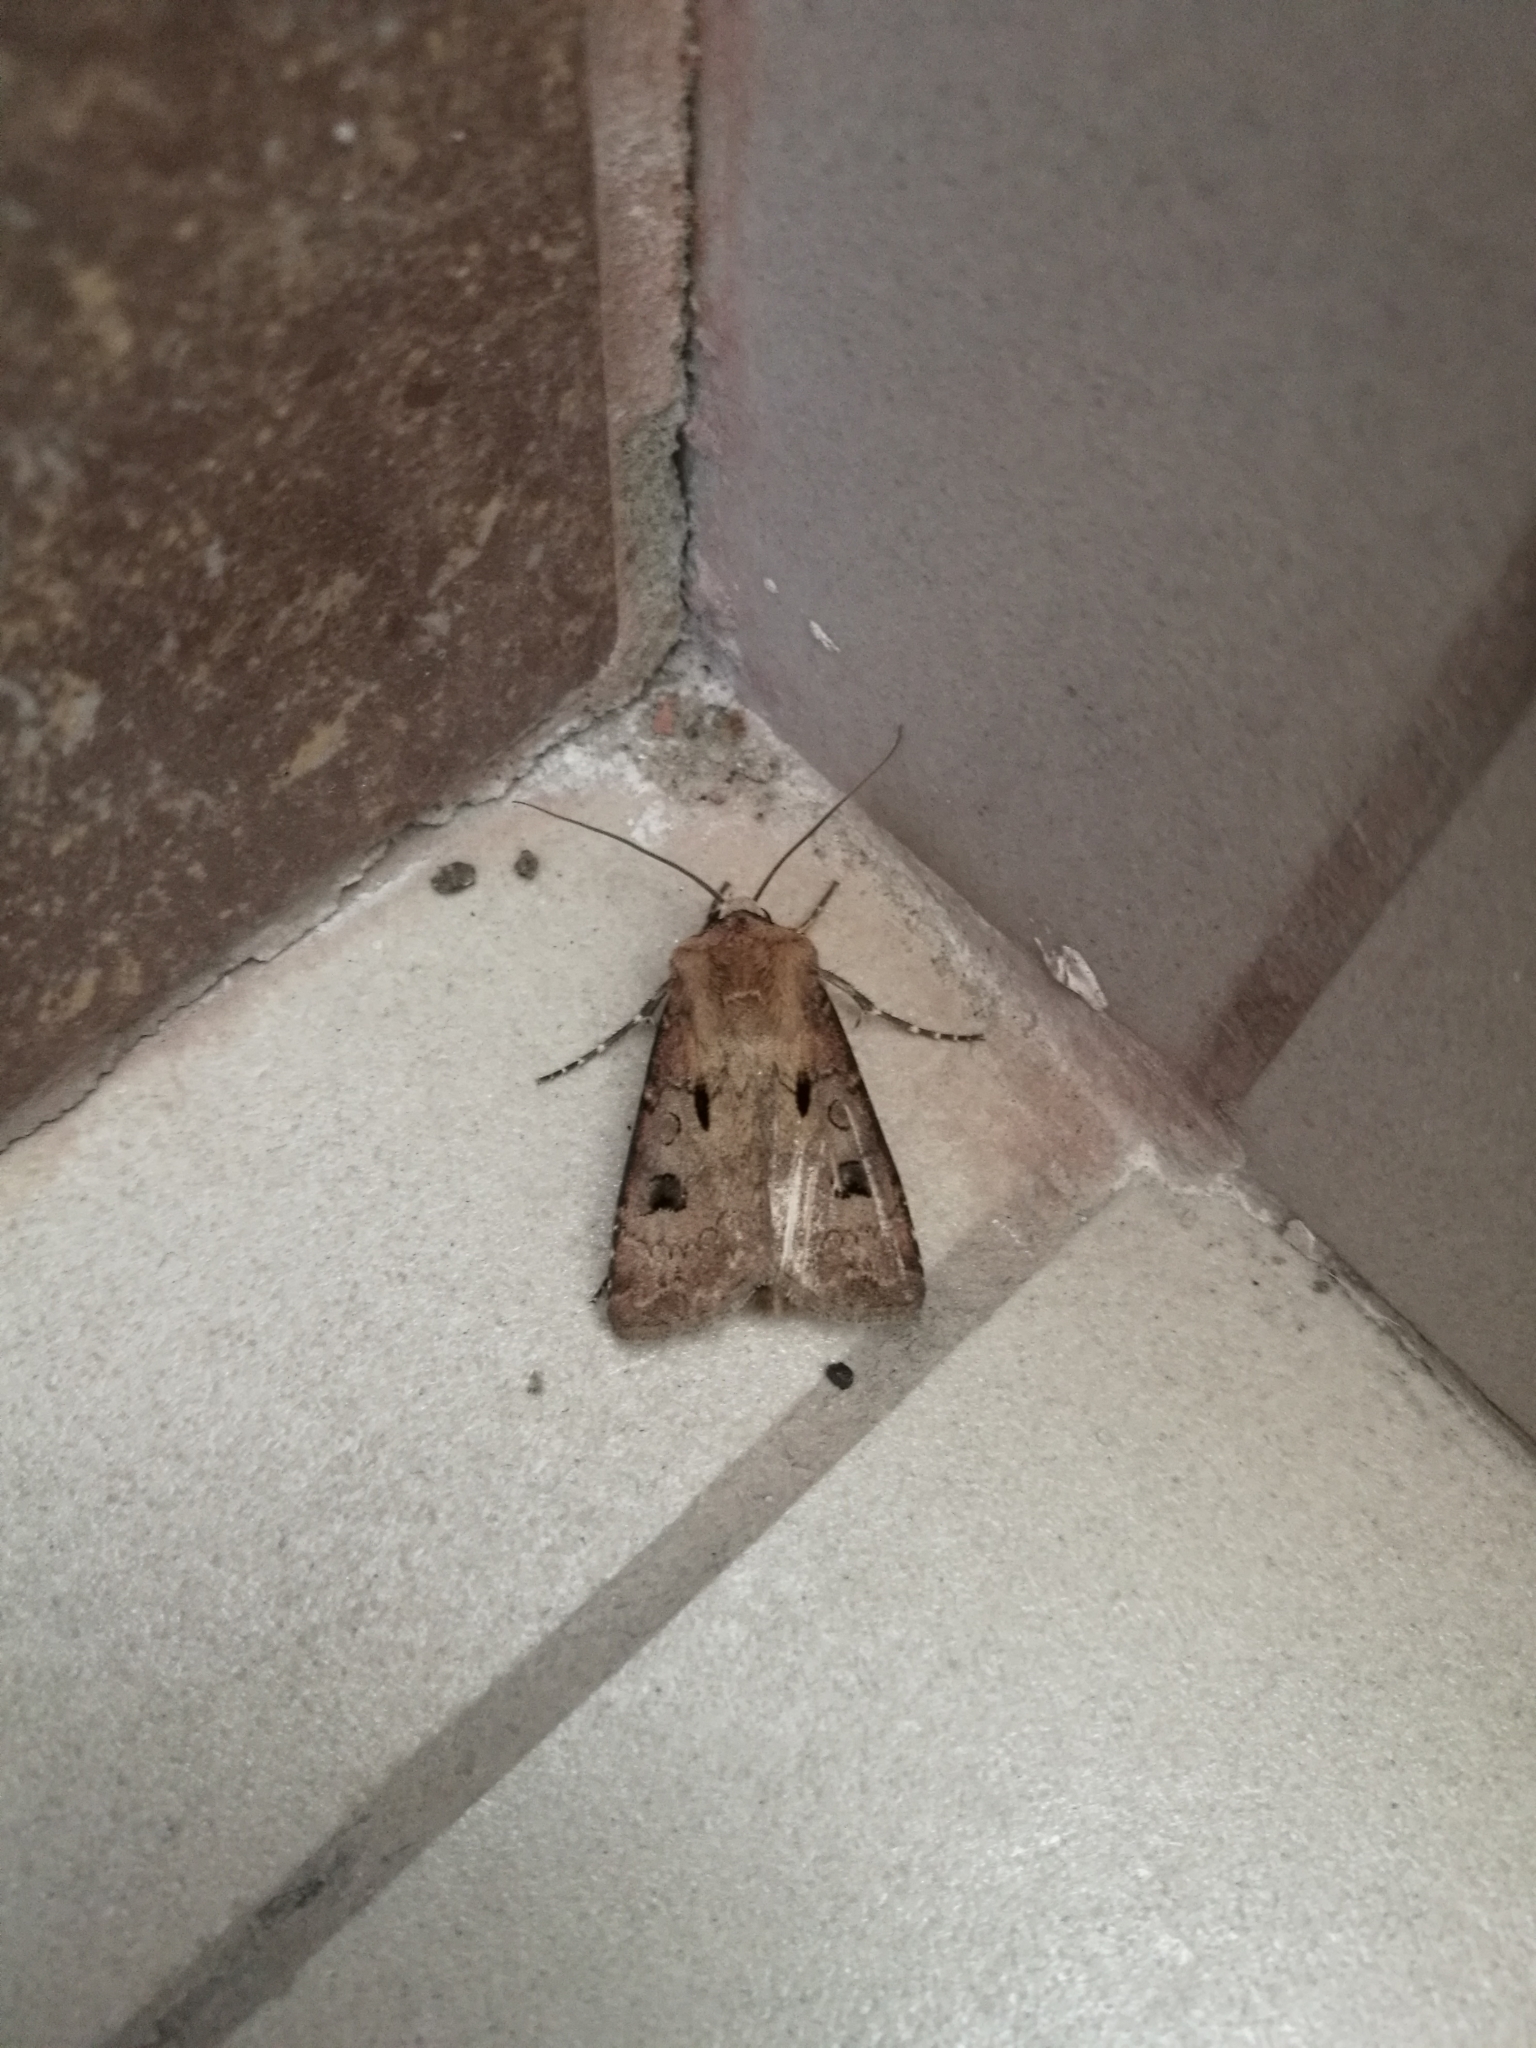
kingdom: Animalia
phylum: Arthropoda
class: Insecta
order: Lepidoptera
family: Noctuidae
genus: Agrotis
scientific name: Agrotis exclamationis
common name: Heart and dart
